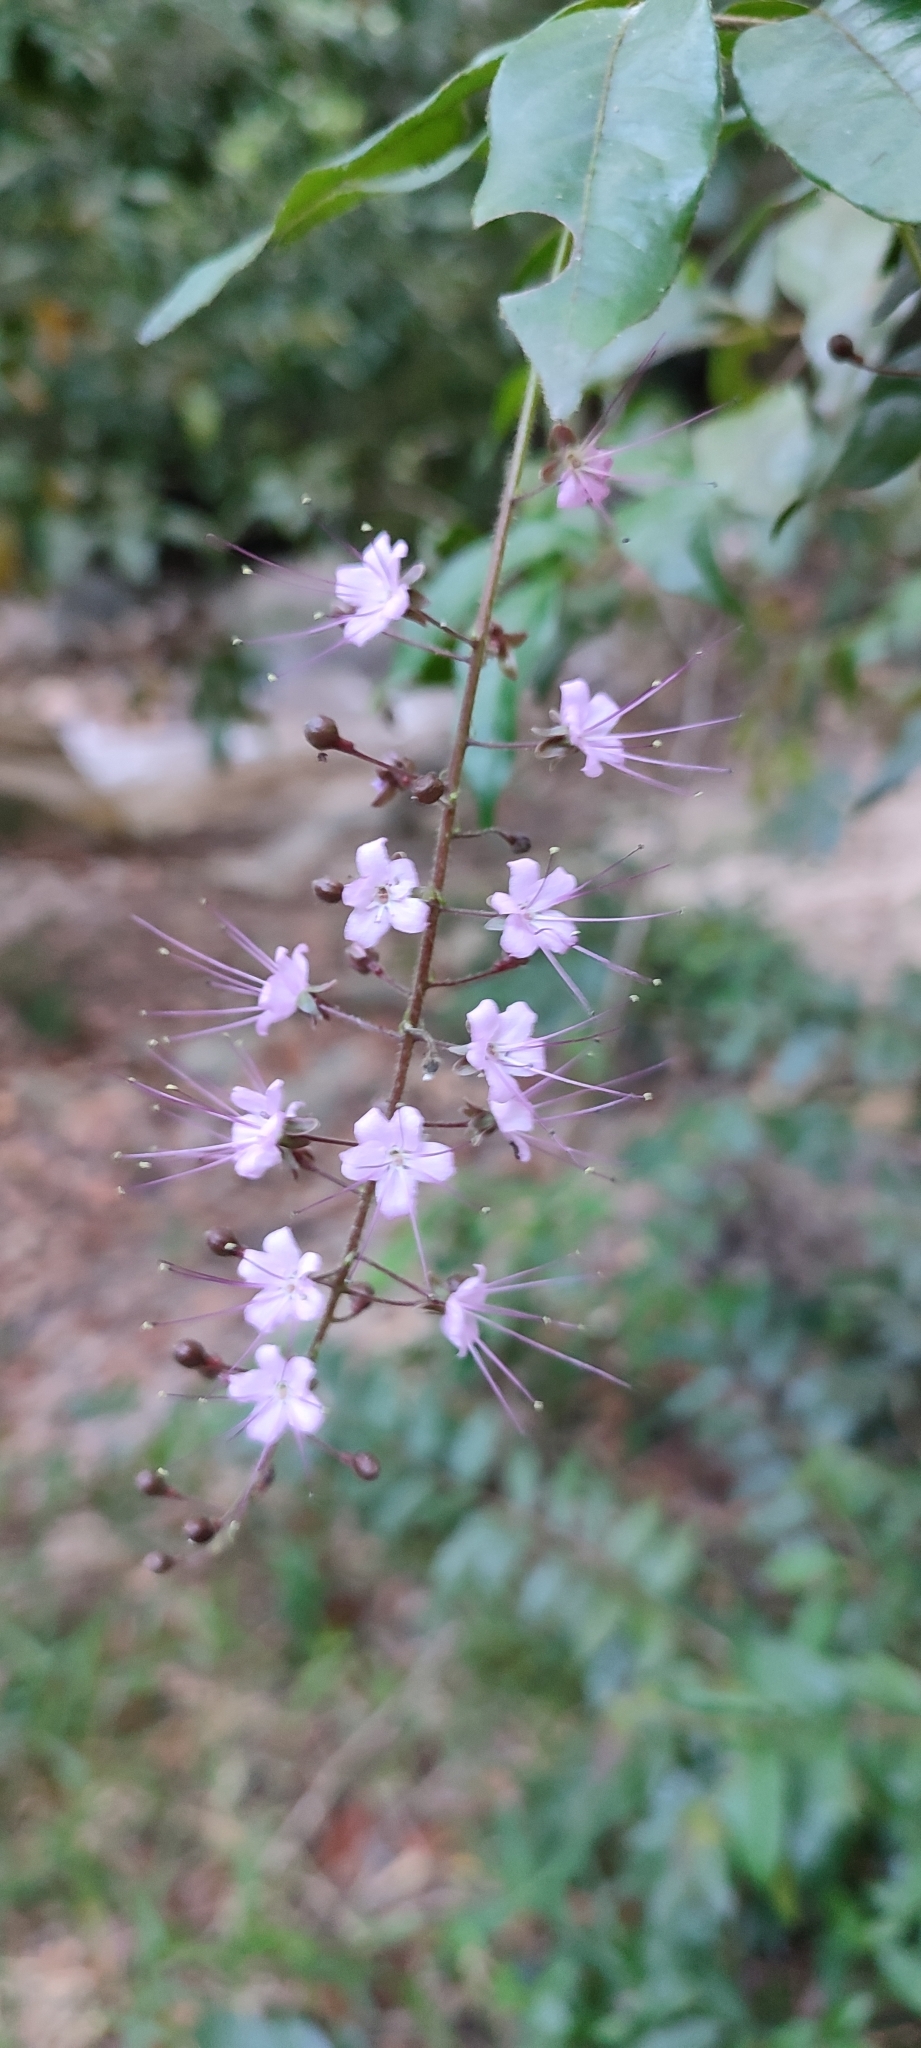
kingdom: Plantae
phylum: Tracheophyta
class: Magnoliopsida
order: Malpighiales
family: Chrysobalanaceae
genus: Hirtella
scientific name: Hirtella racemosa
